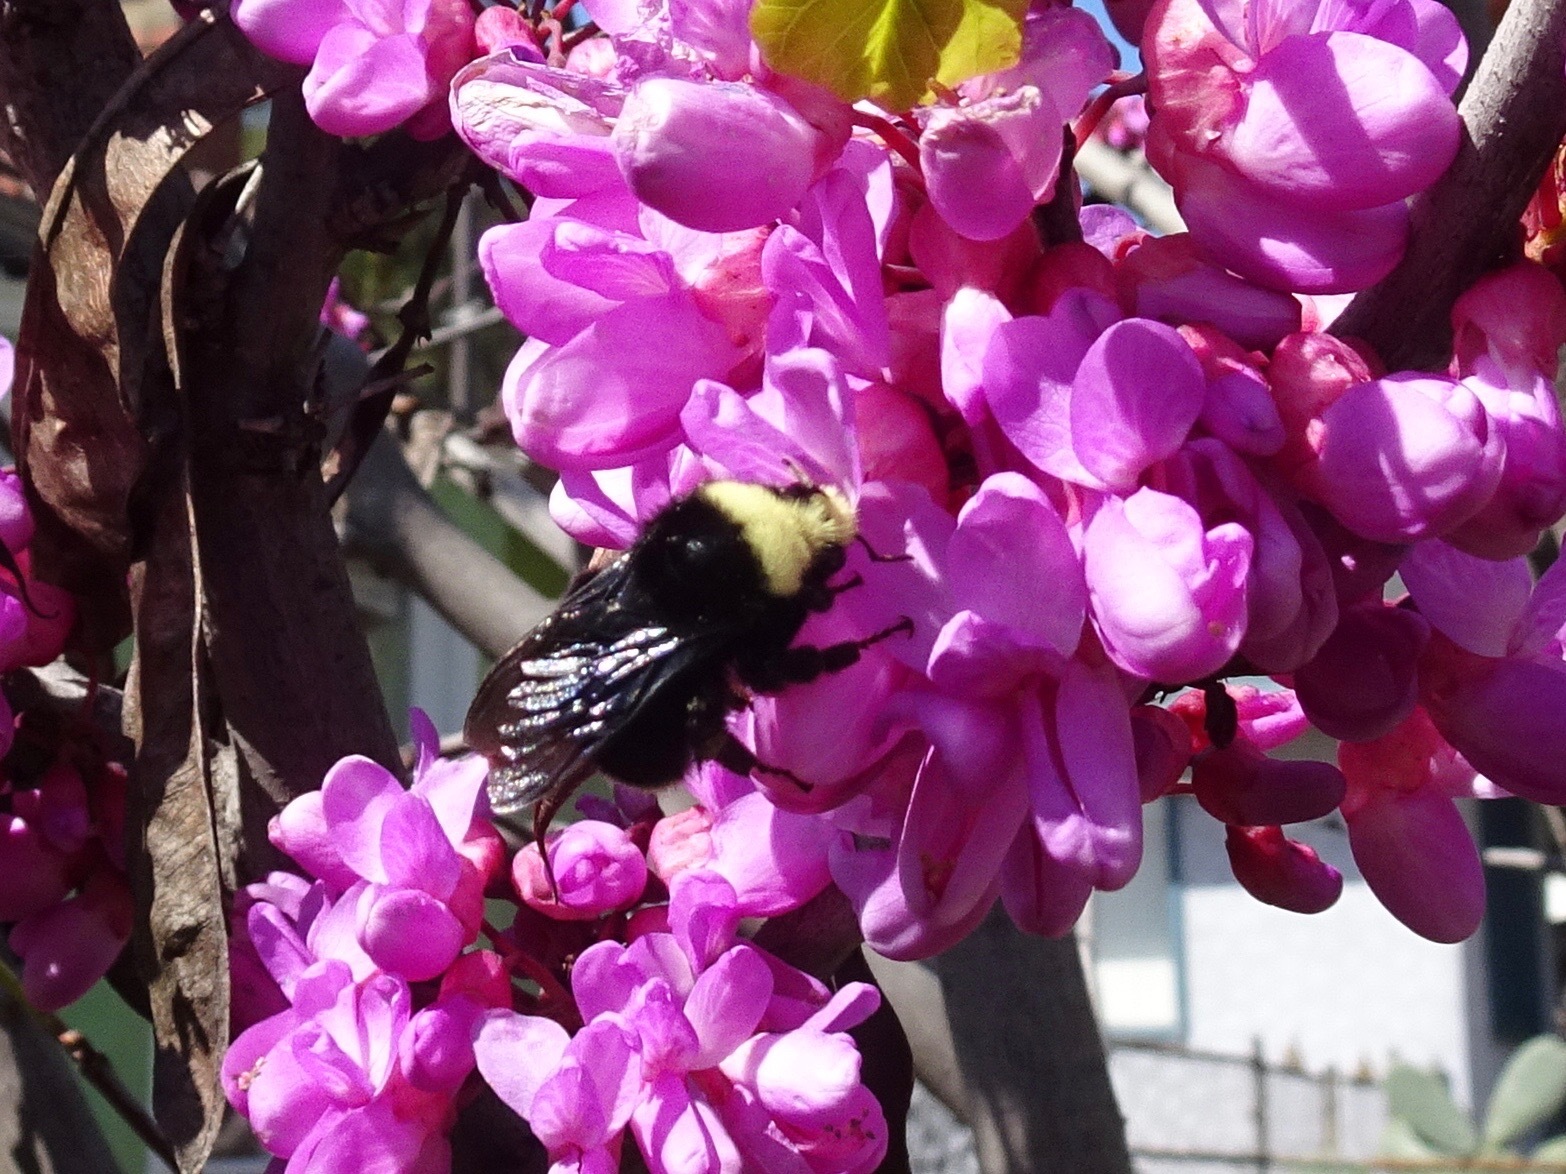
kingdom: Animalia
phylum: Arthropoda
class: Insecta
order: Hymenoptera
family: Apidae
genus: Bombus
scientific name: Bombus vosnesenskii
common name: Vosnesensky bumble bee
